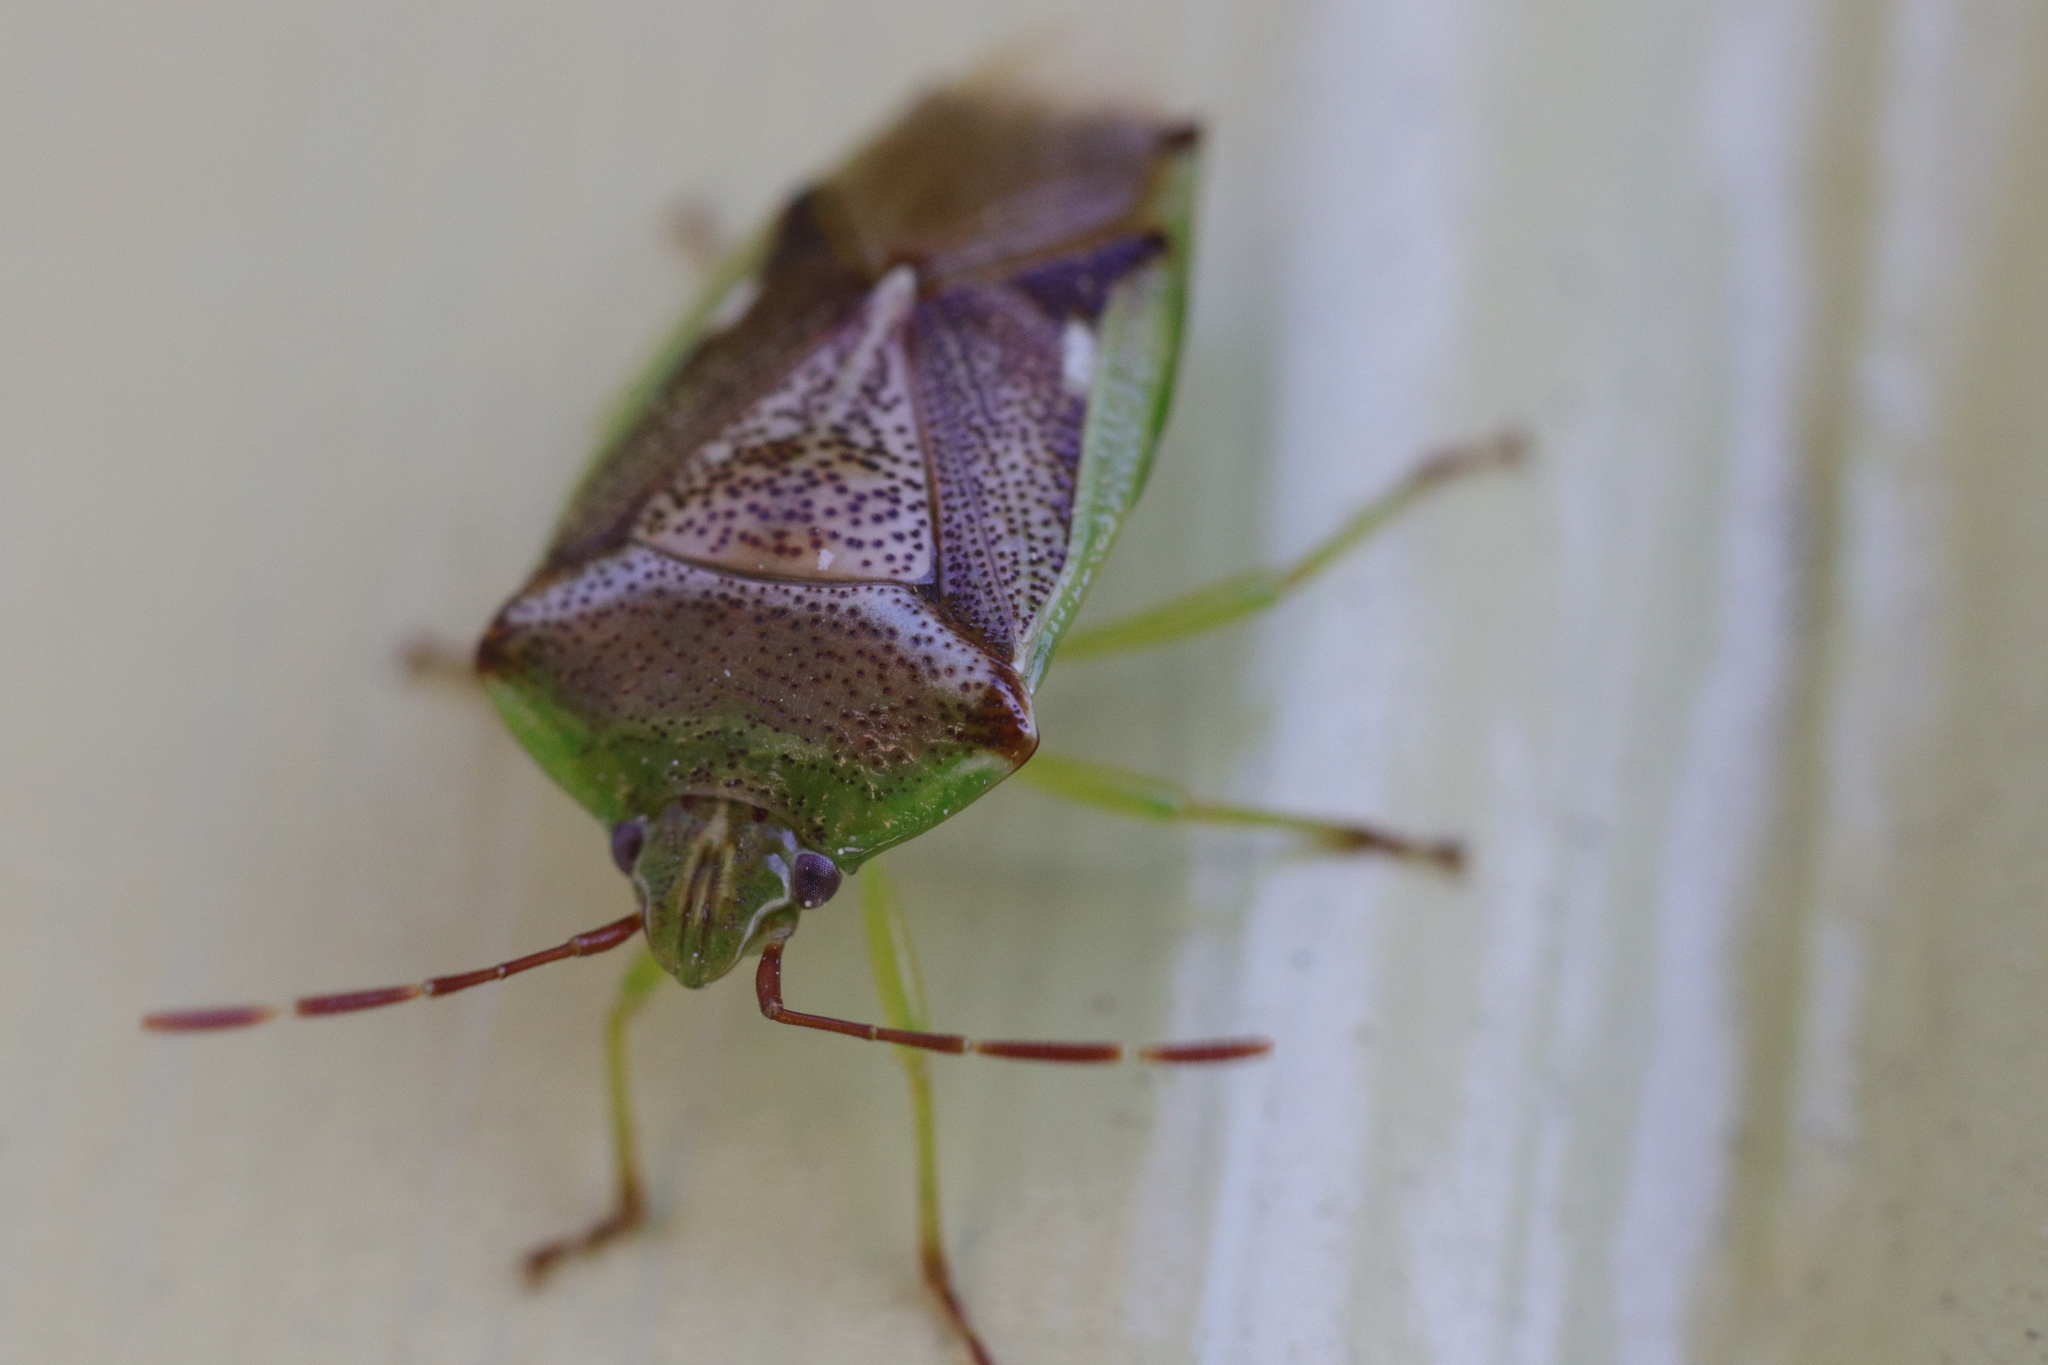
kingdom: Animalia
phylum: Arthropoda
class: Insecta
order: Hemiptera
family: Acanthosomatidae
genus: Oncacontias
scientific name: Oncacontias vittatus
